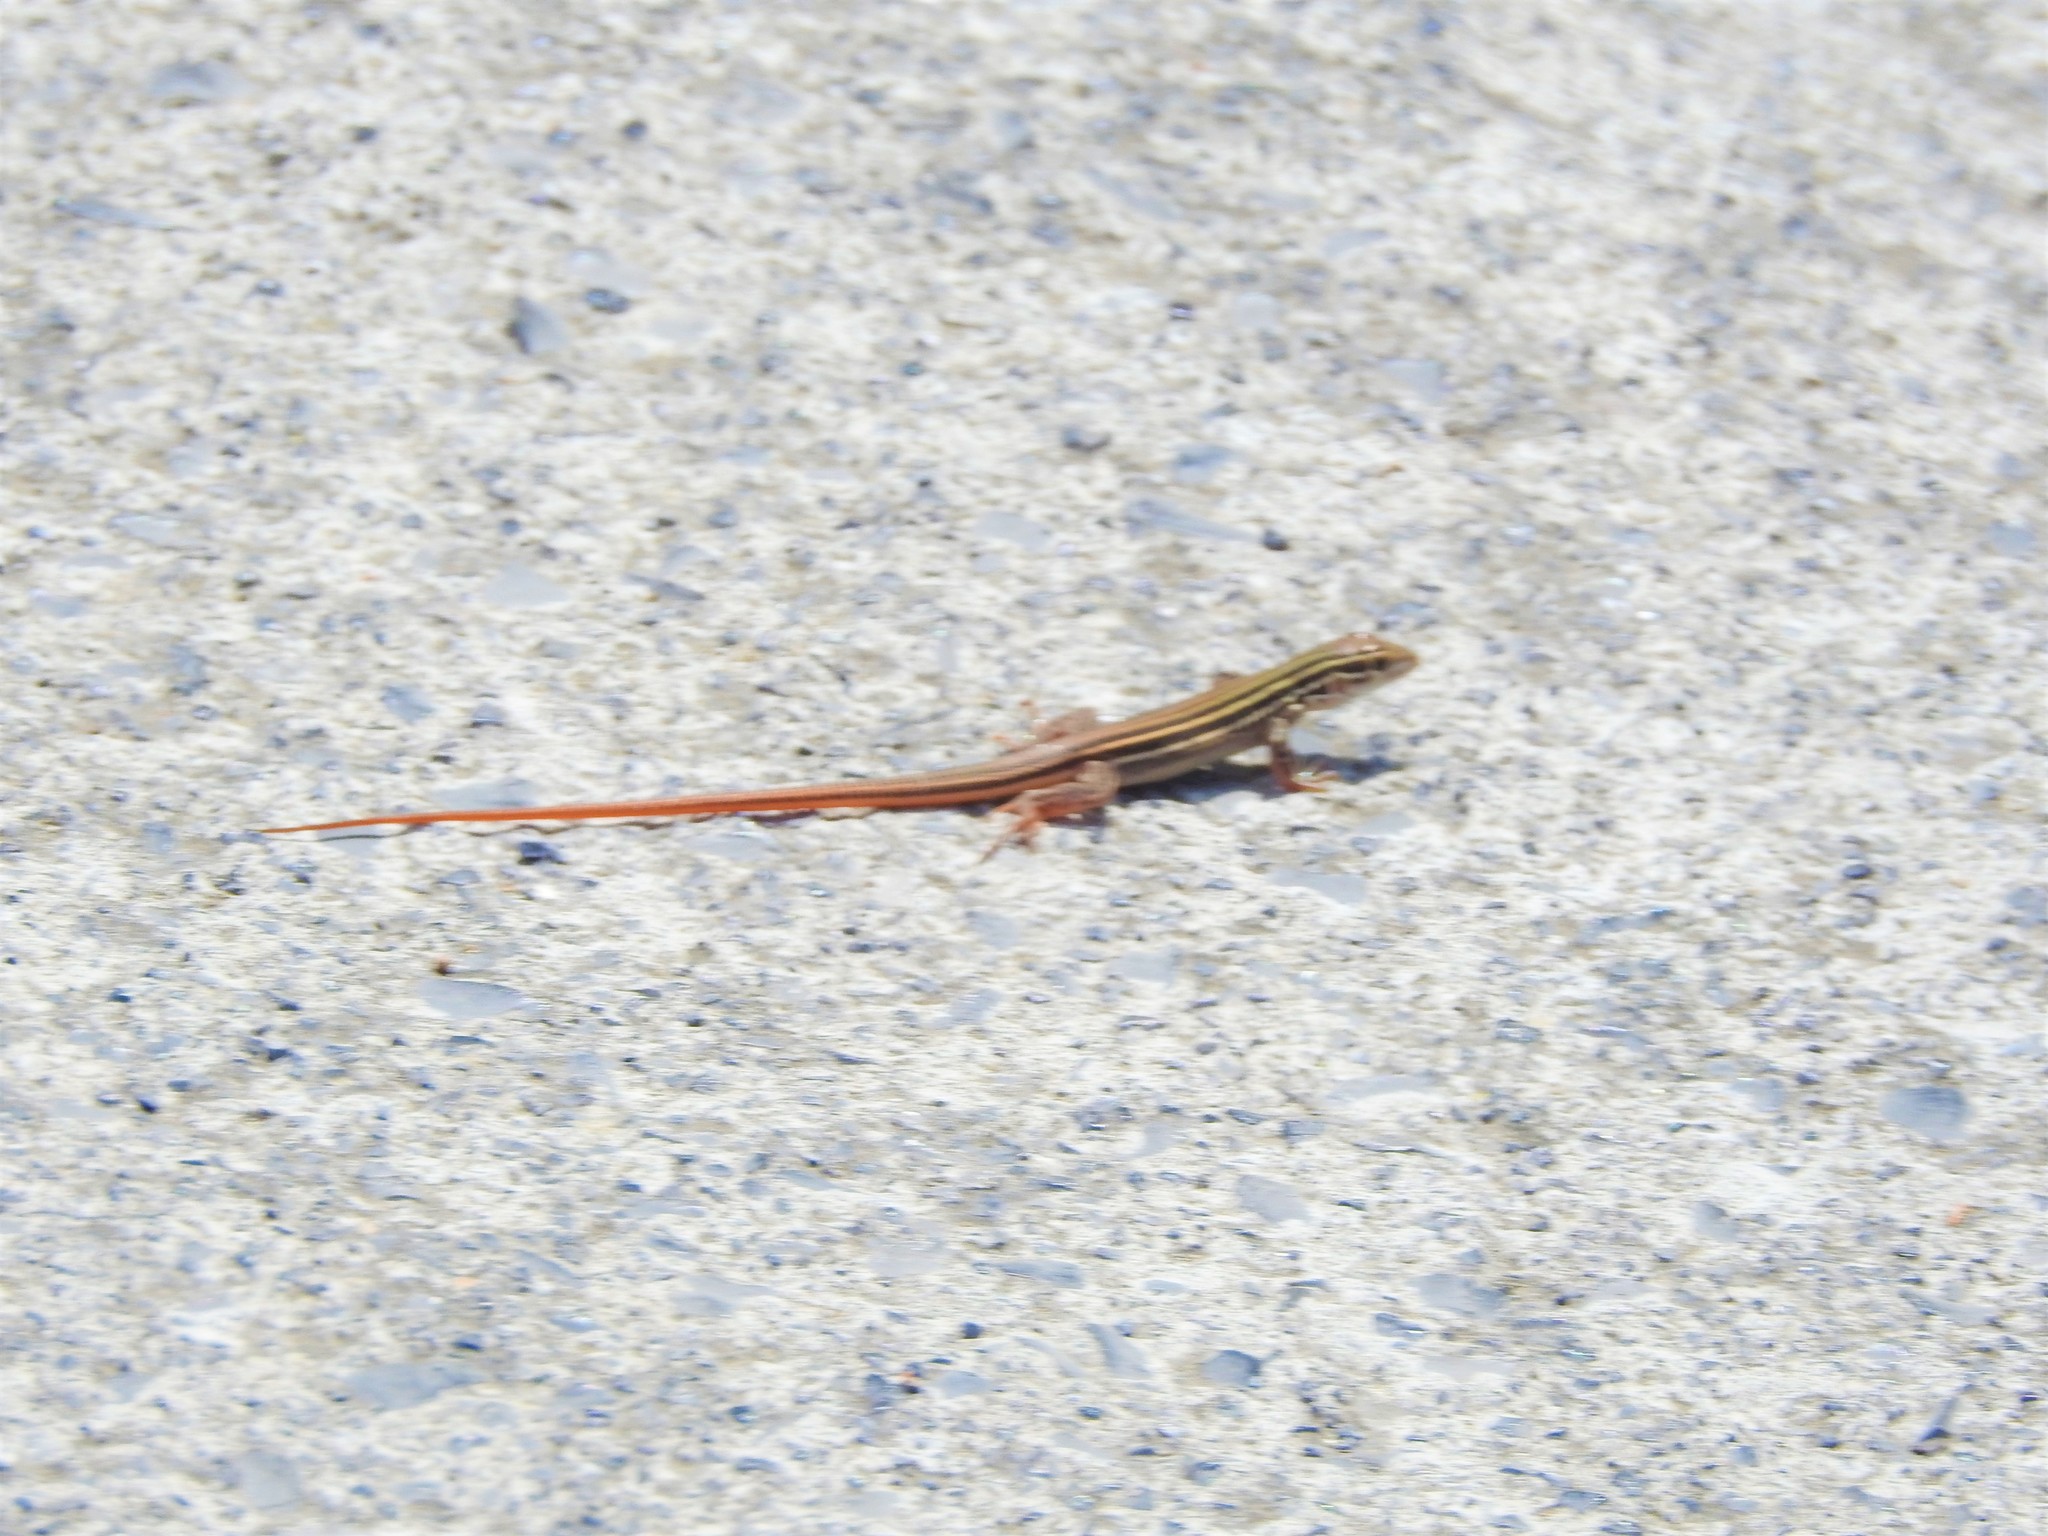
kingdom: Animalia
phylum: Chordata
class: Squamata
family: Teiidae
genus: Aspidoscelis
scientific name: Aspidoscelis gularis
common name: Eastern spotted whiptail
